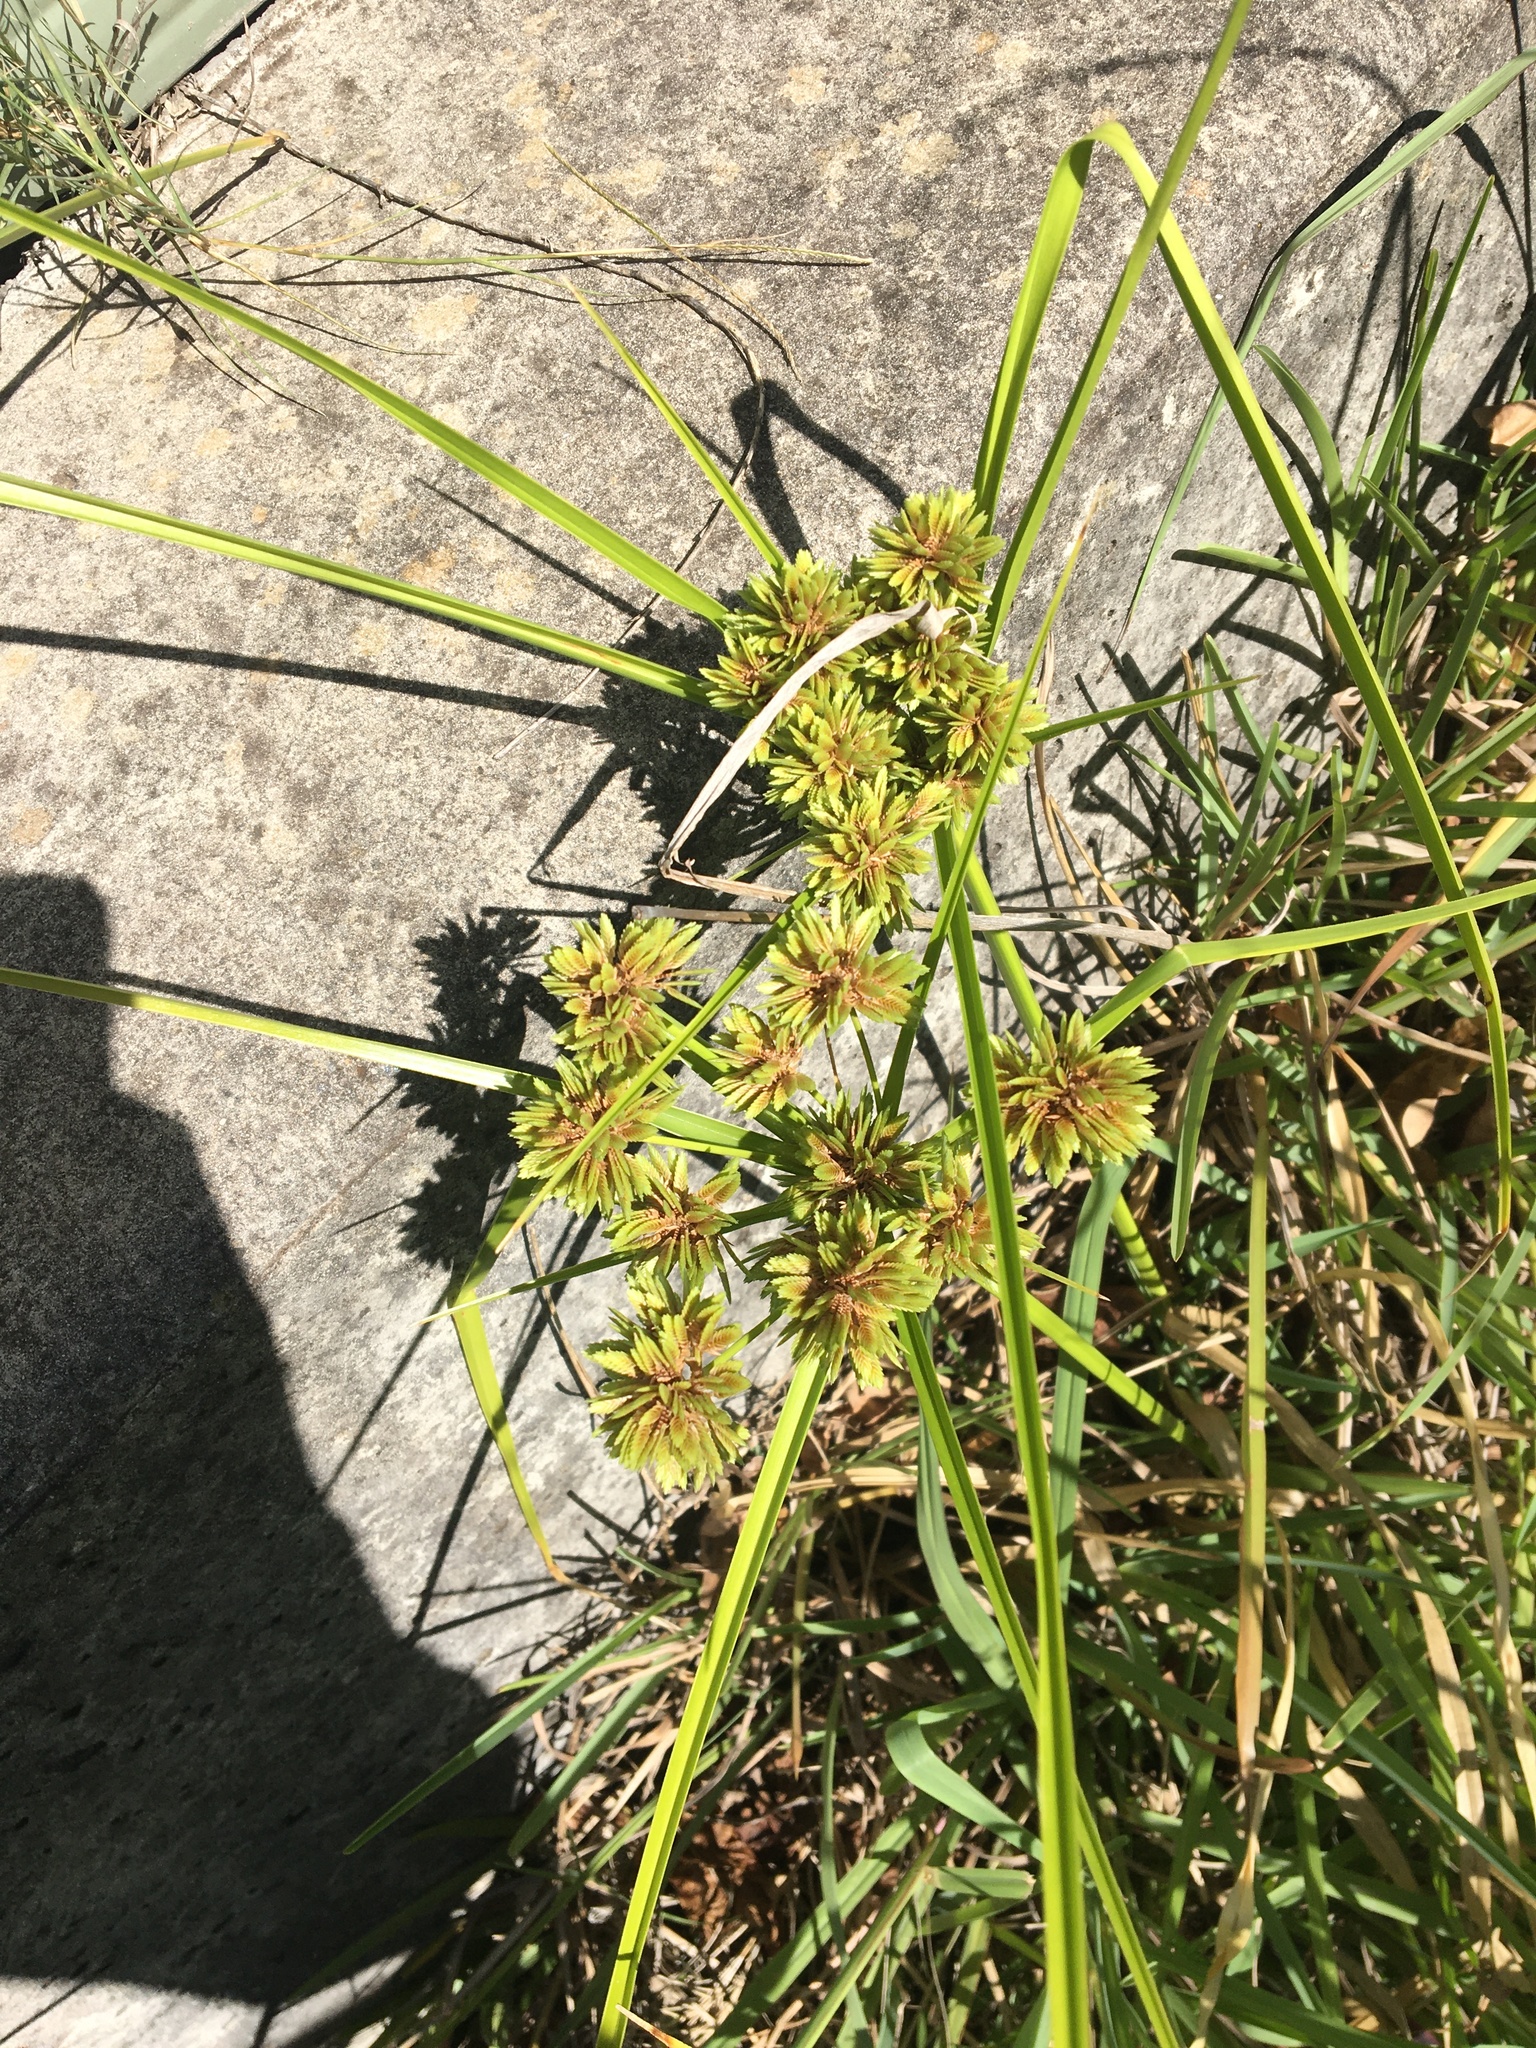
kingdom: Plantae
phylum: Tracheophyta
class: Liliopsida
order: Poales
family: Cyperaceae
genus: Cyperus
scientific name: Cyperus eragrostis
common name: Tall flatsedge
